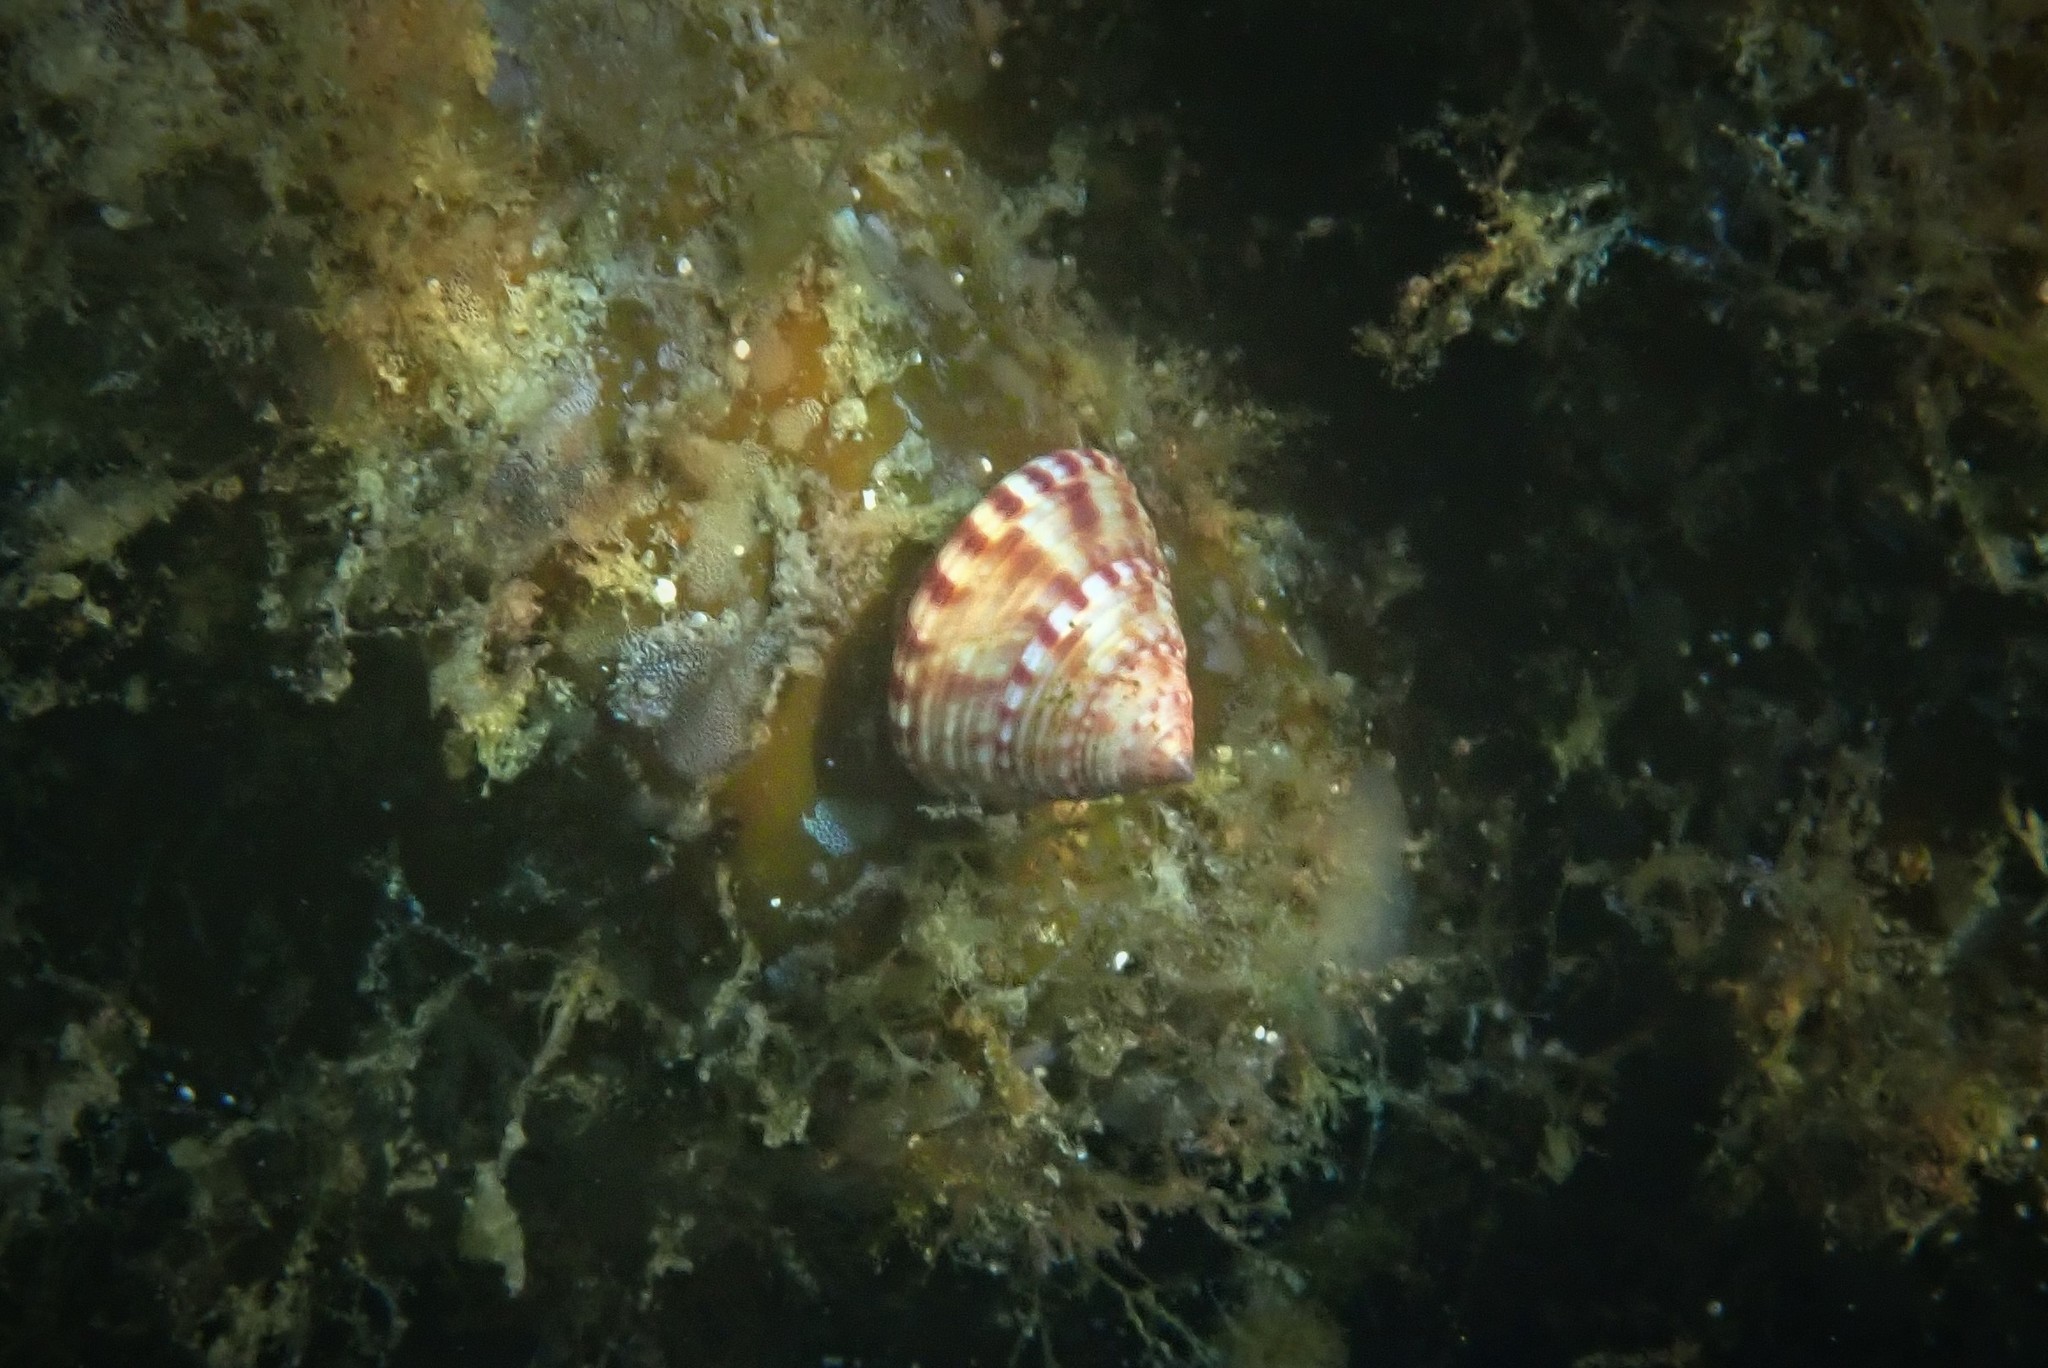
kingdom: Animalia
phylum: Mollusca
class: Gastropoda
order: Trochida
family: Calliostomatidae
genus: Calliostoma
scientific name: Calliostoma zizyphinum
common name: Painted top shell
